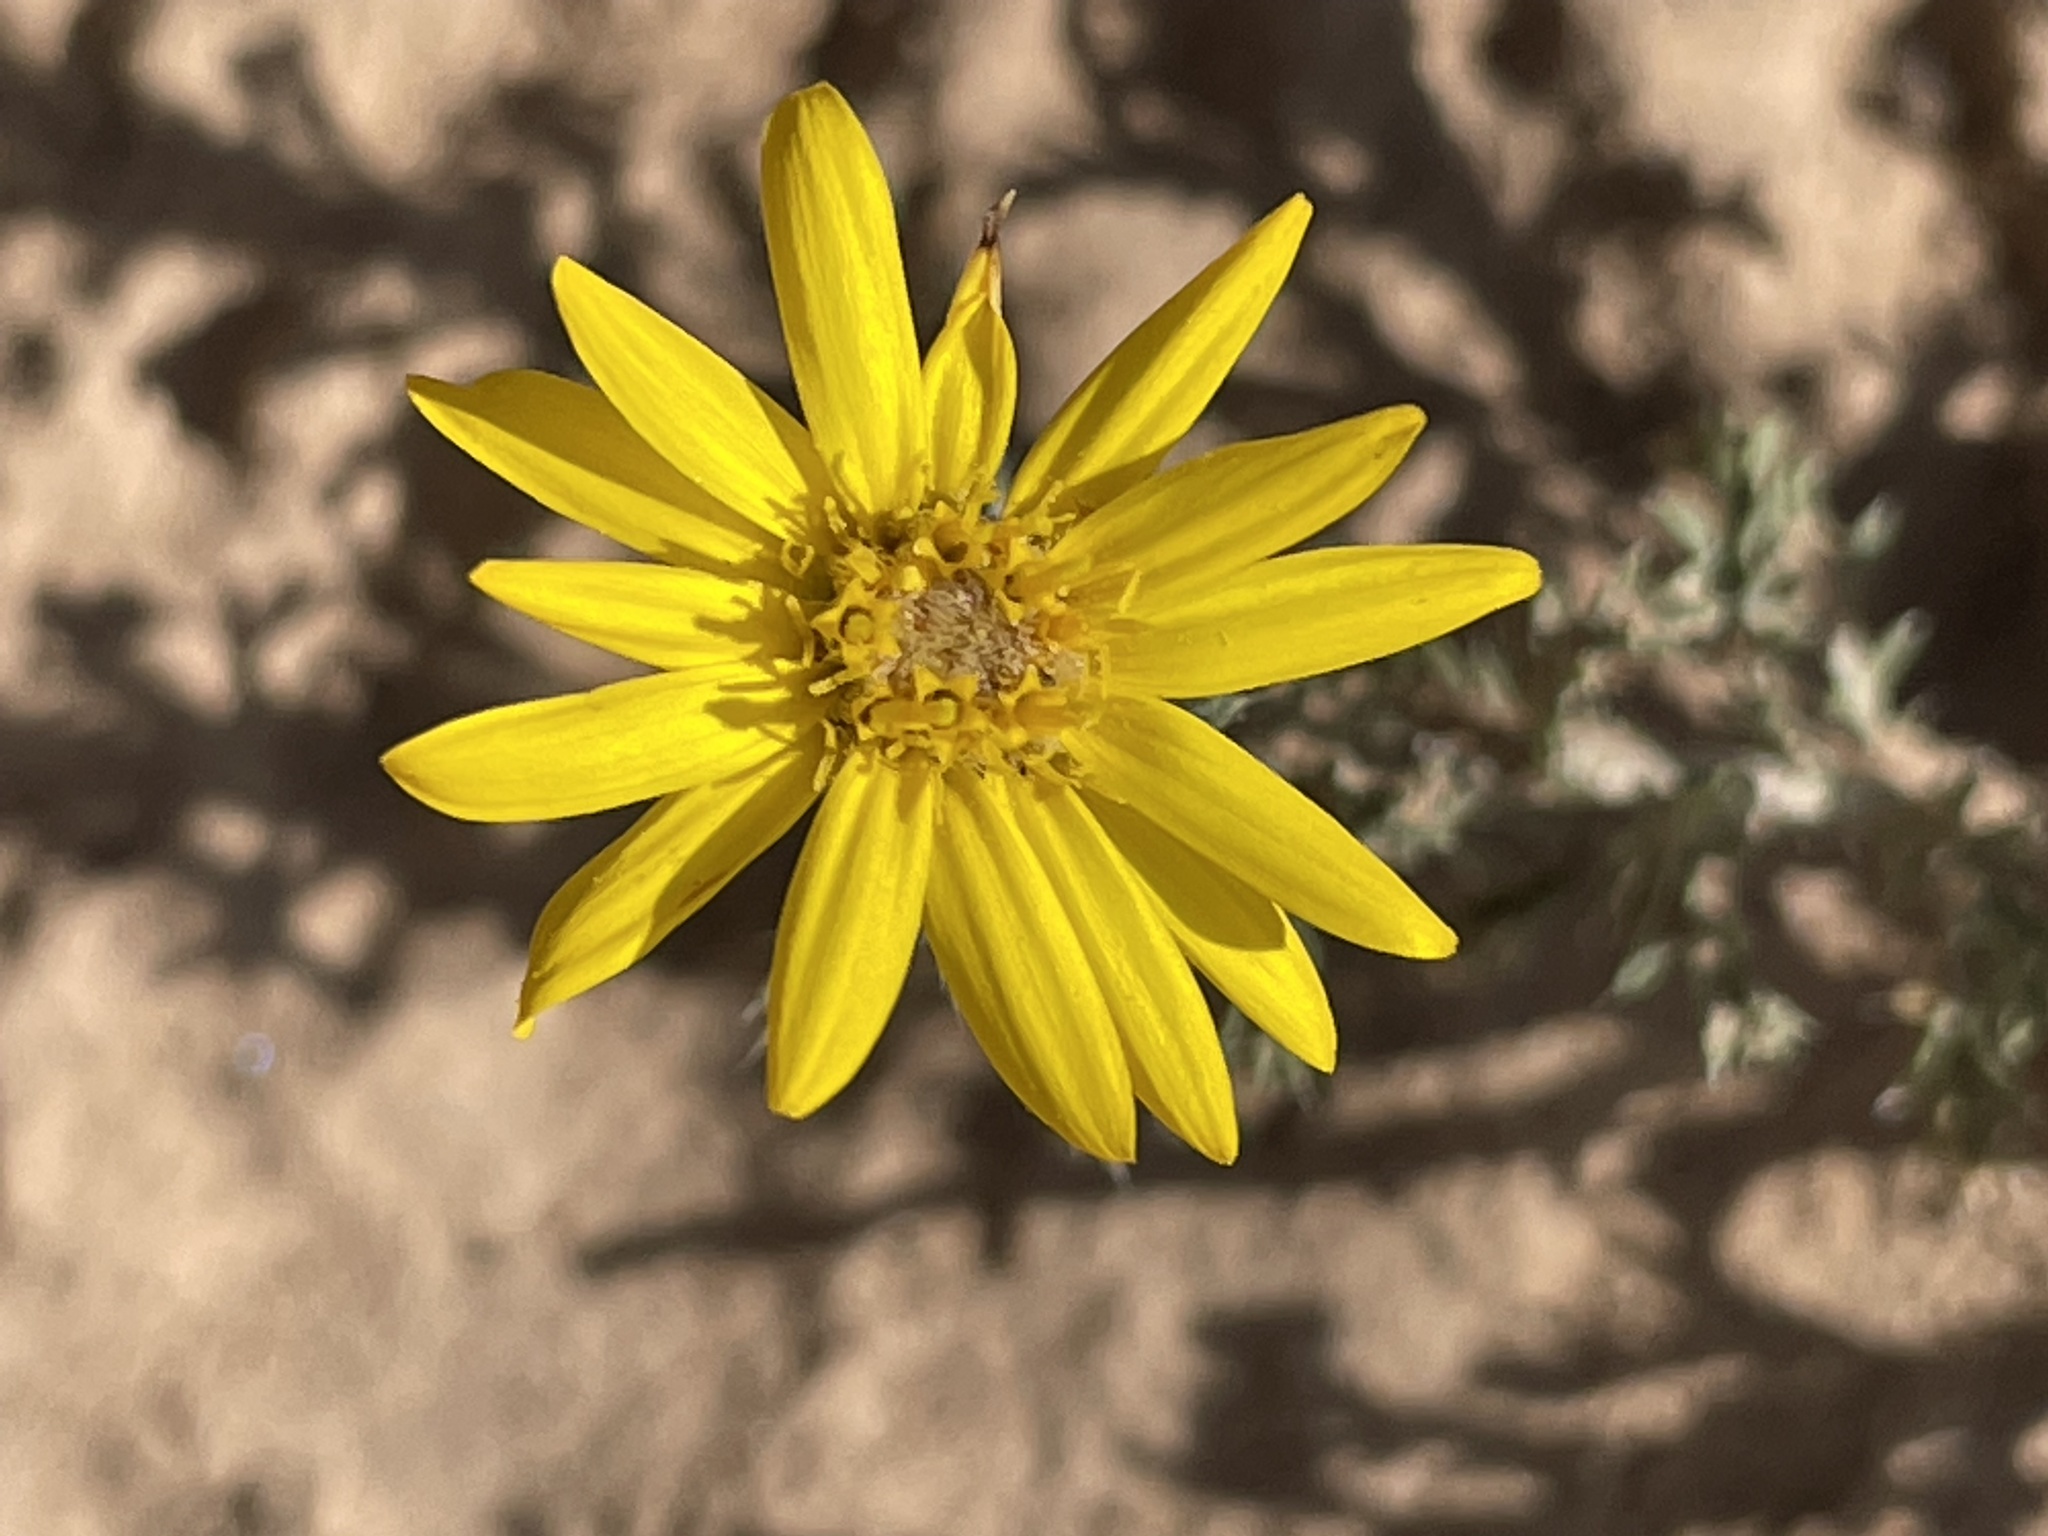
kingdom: Plantae
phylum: Tracheophyta
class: Magnoliopsida
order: Asterales
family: Asteraceae
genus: Xanthisma
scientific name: Xanthisma spinulosum
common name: Spiny goldenweed
